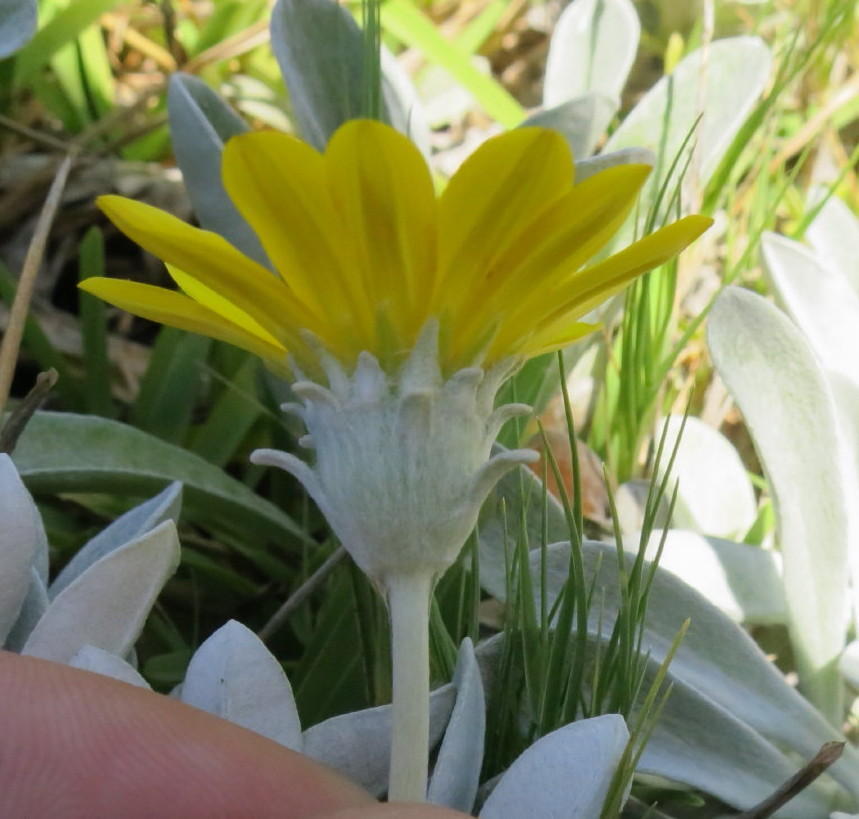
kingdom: Plantae
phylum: Tracheophyta
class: Magnoliopsida
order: Asterales
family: Asteraceae
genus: Gazania
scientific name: Gazania rigens
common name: Treasureflower
